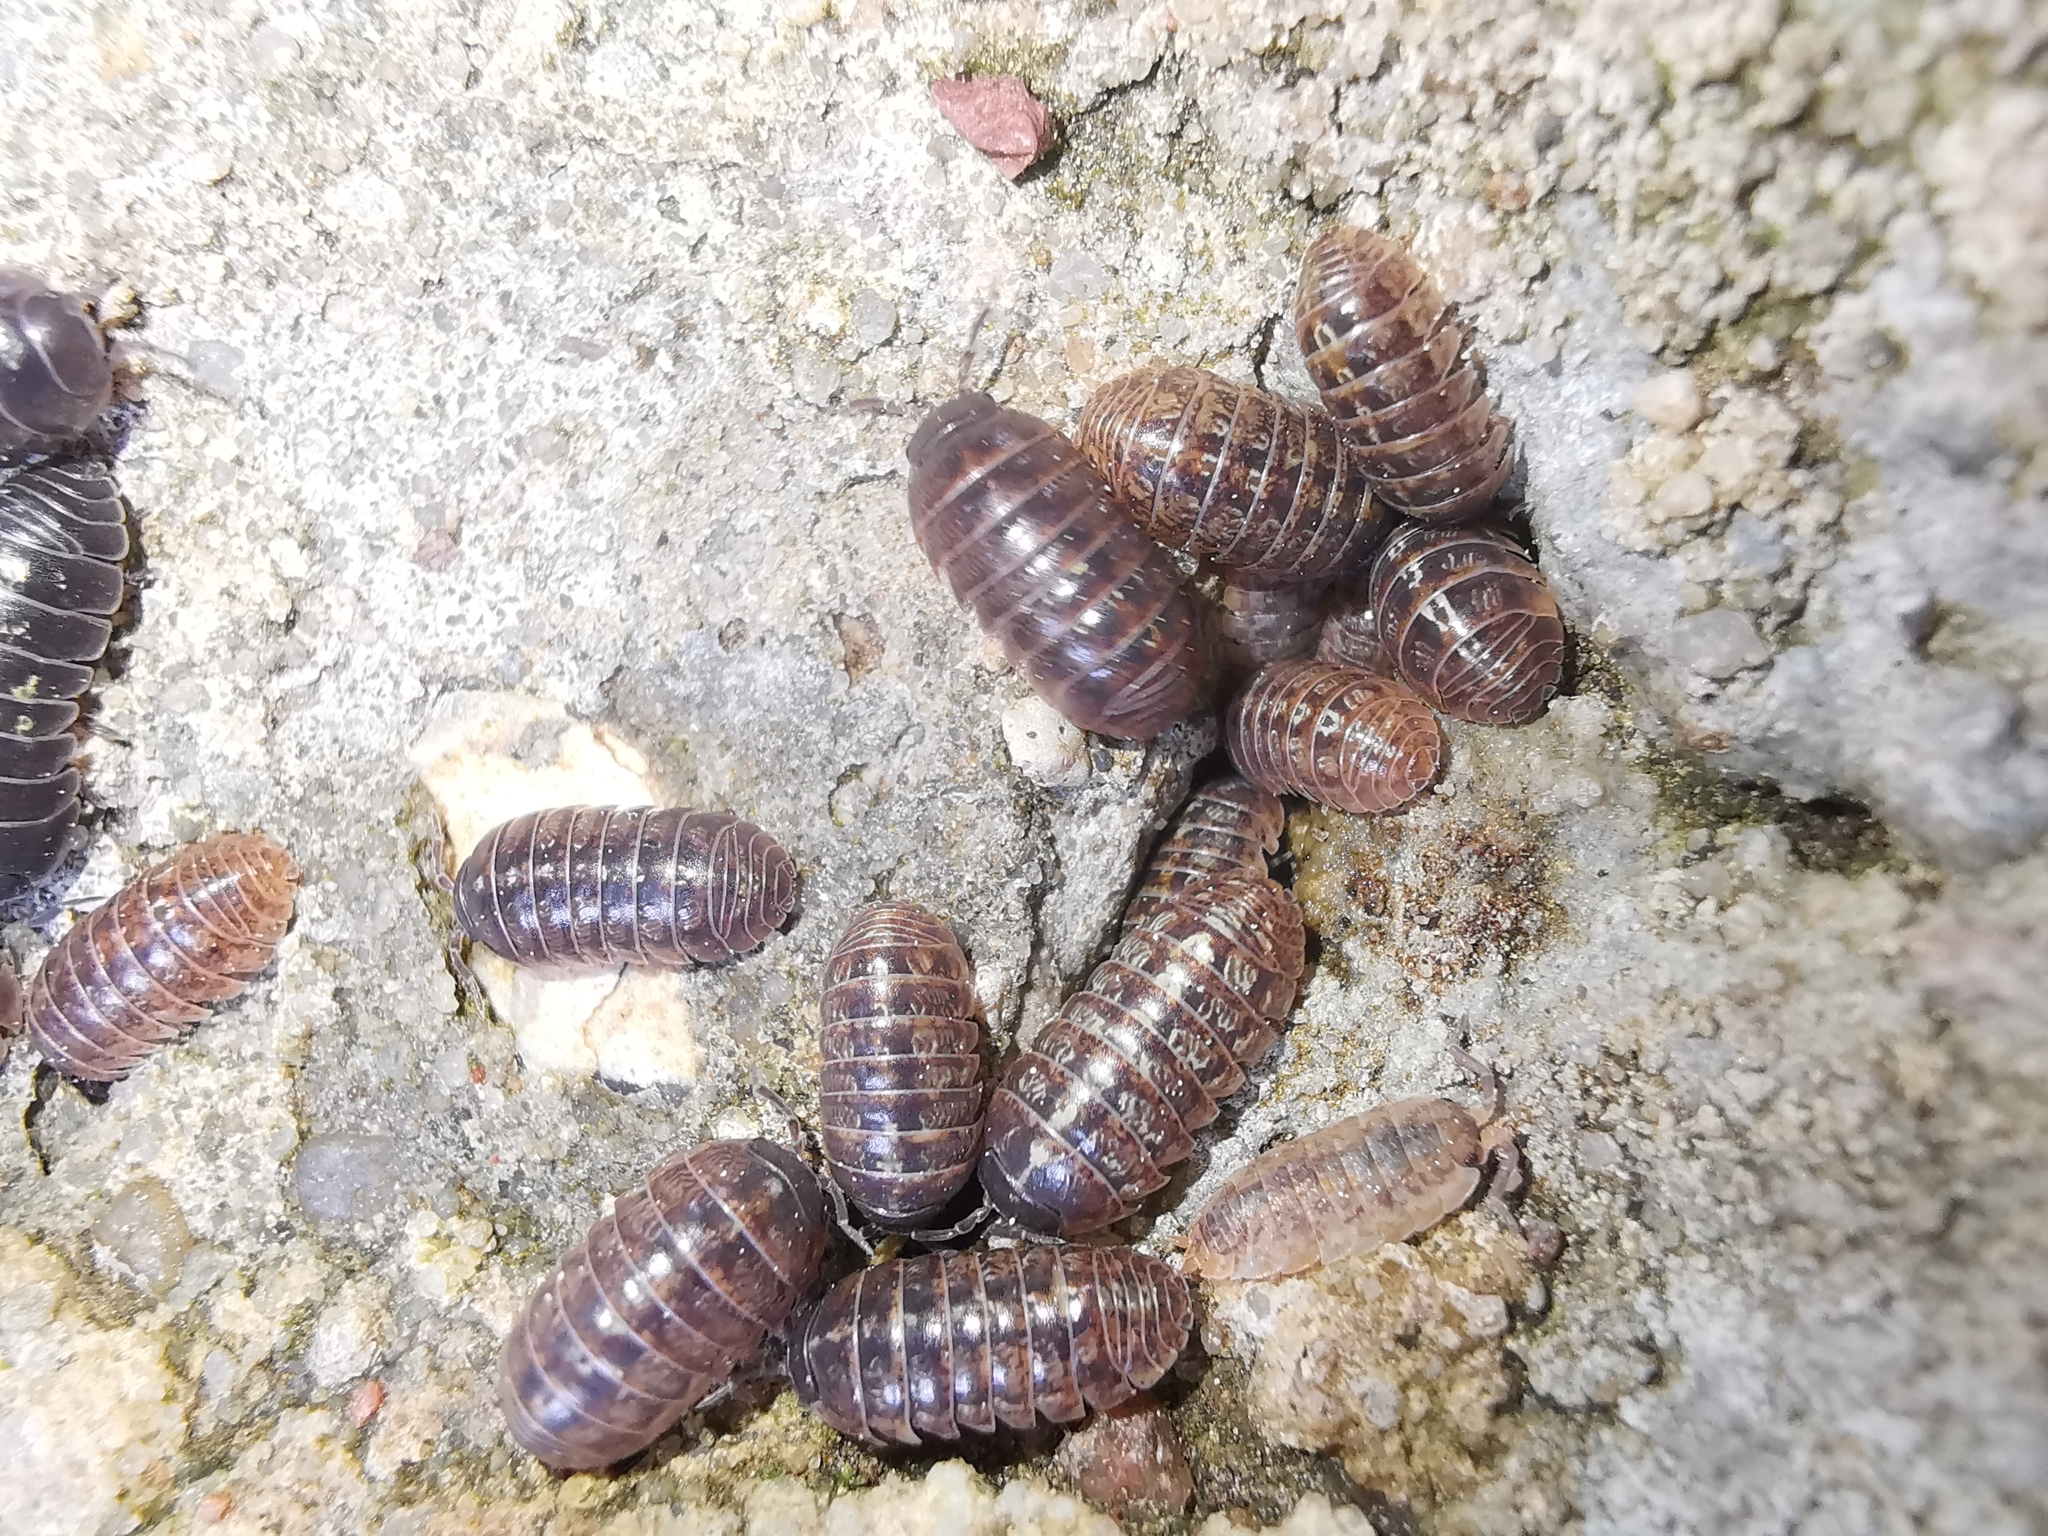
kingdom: Animalia
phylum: Arthropoda
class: Malacostraca
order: Isopoda
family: Armadillidiidae
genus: Armadillidium
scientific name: Armadillidium vulgare
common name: Common pill woodlouse
